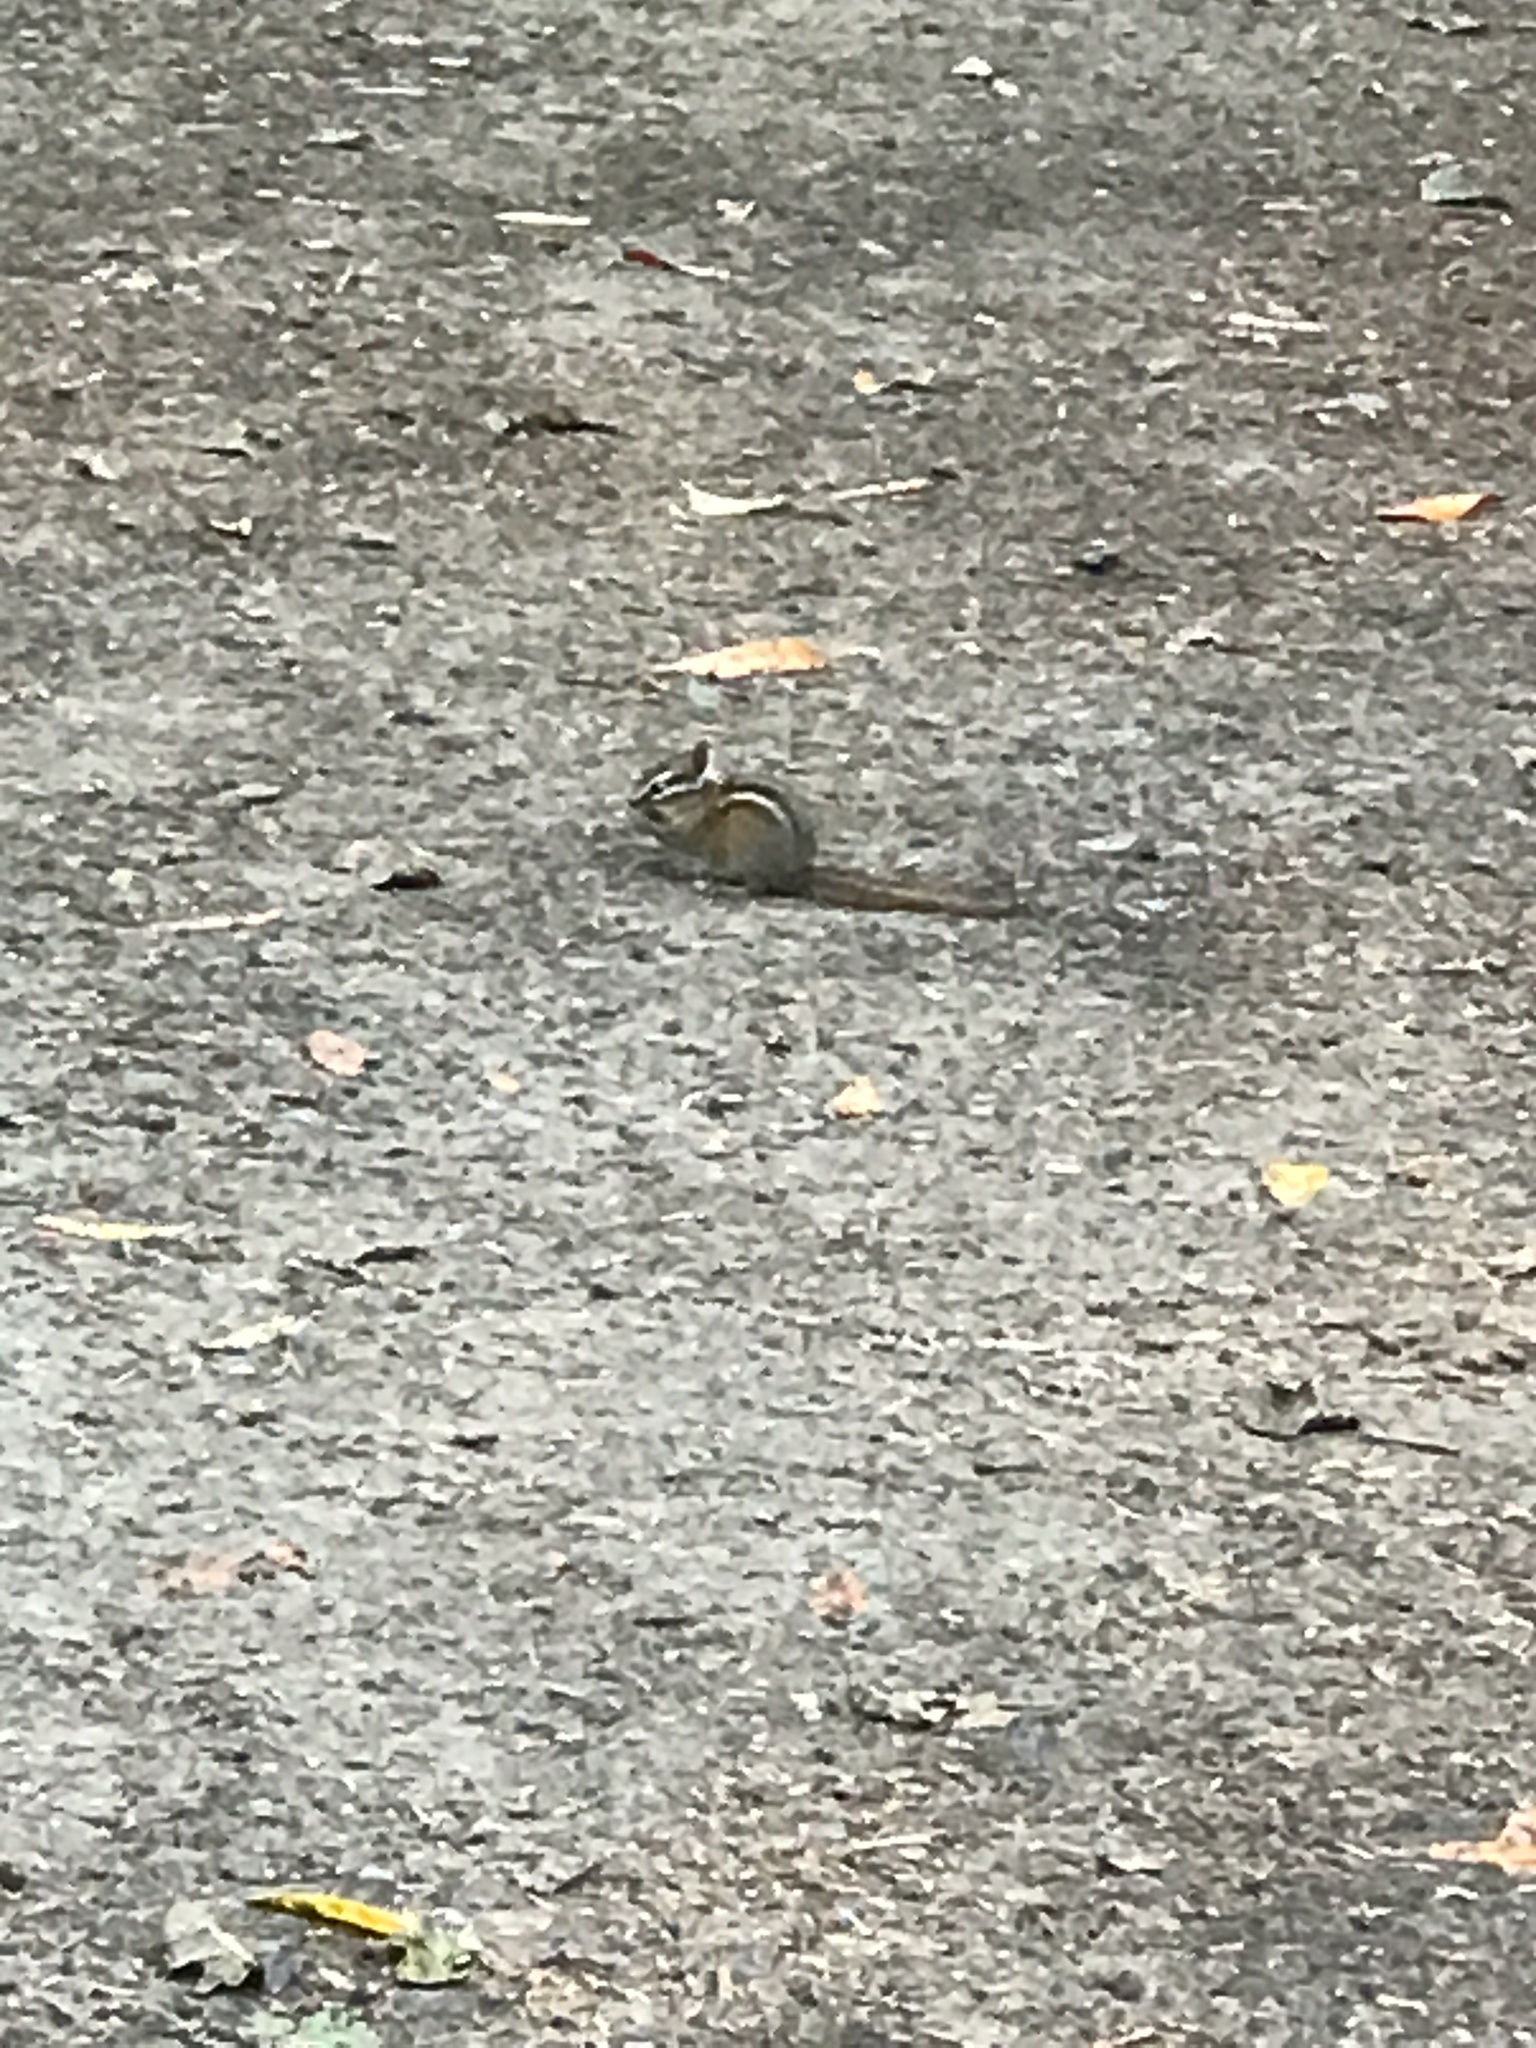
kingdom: Animalia
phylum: Chordata
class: Mammalia
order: Rodentia
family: Sciuridae
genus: Tamias
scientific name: Tamias sonomae
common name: Sonoma chipmunk
